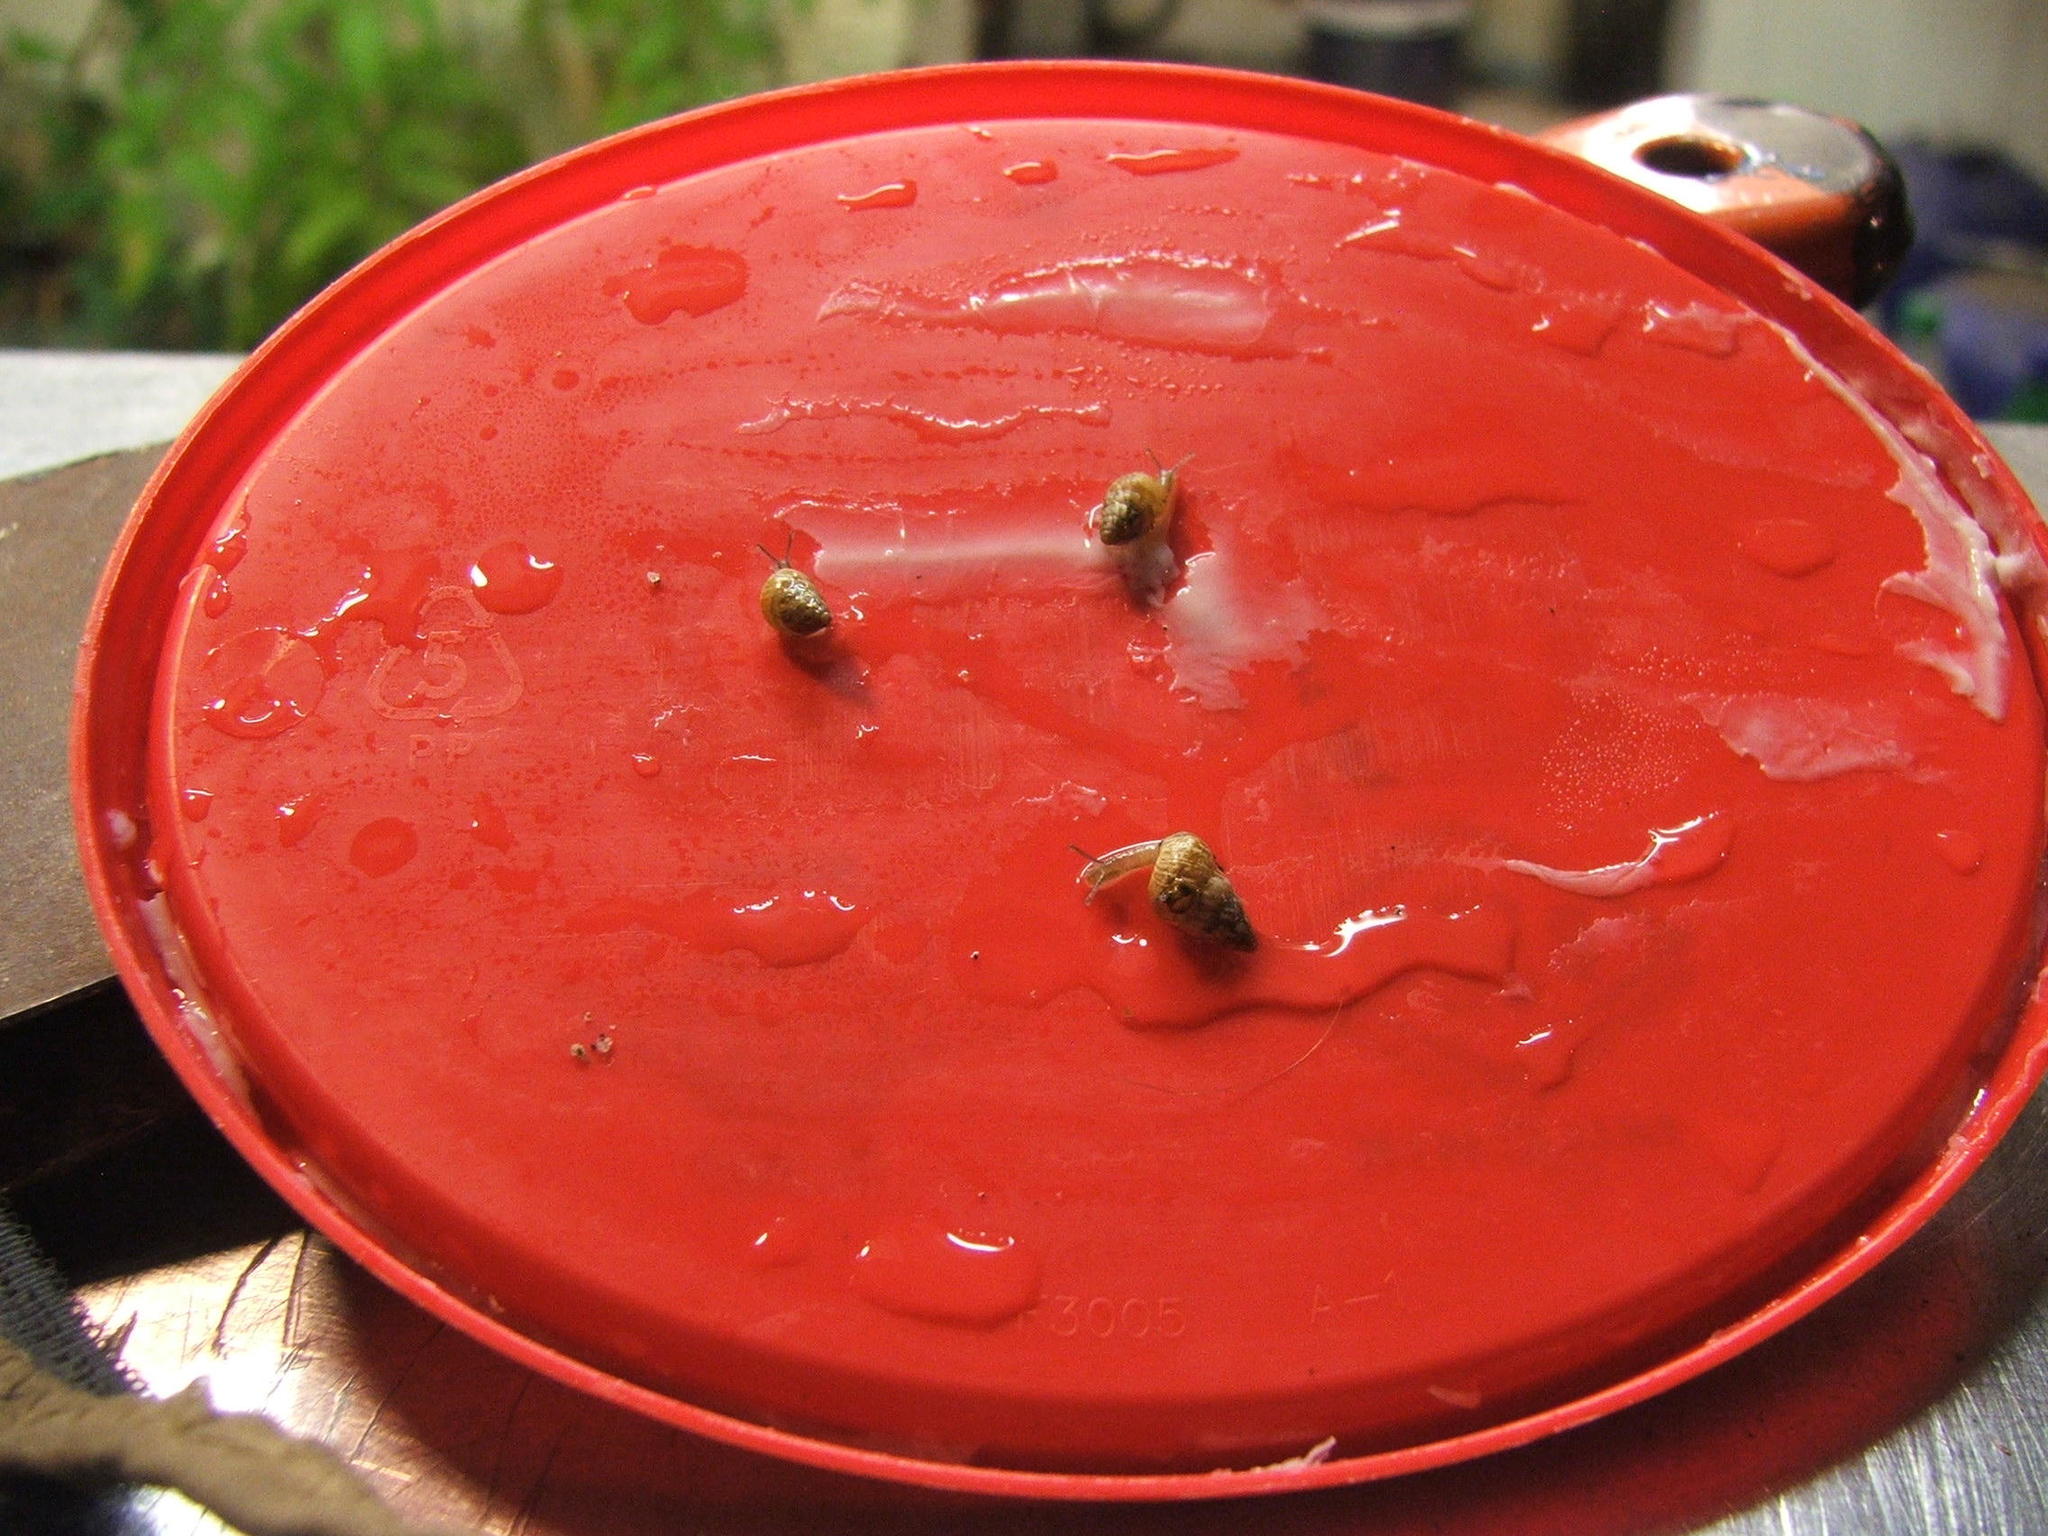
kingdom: Animalia
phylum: Mollusca
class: Gastropoda
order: Stylommatophora
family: Geomitridae
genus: Cochlicella
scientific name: Cochlicella barbara
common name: Potbellied helicellid
